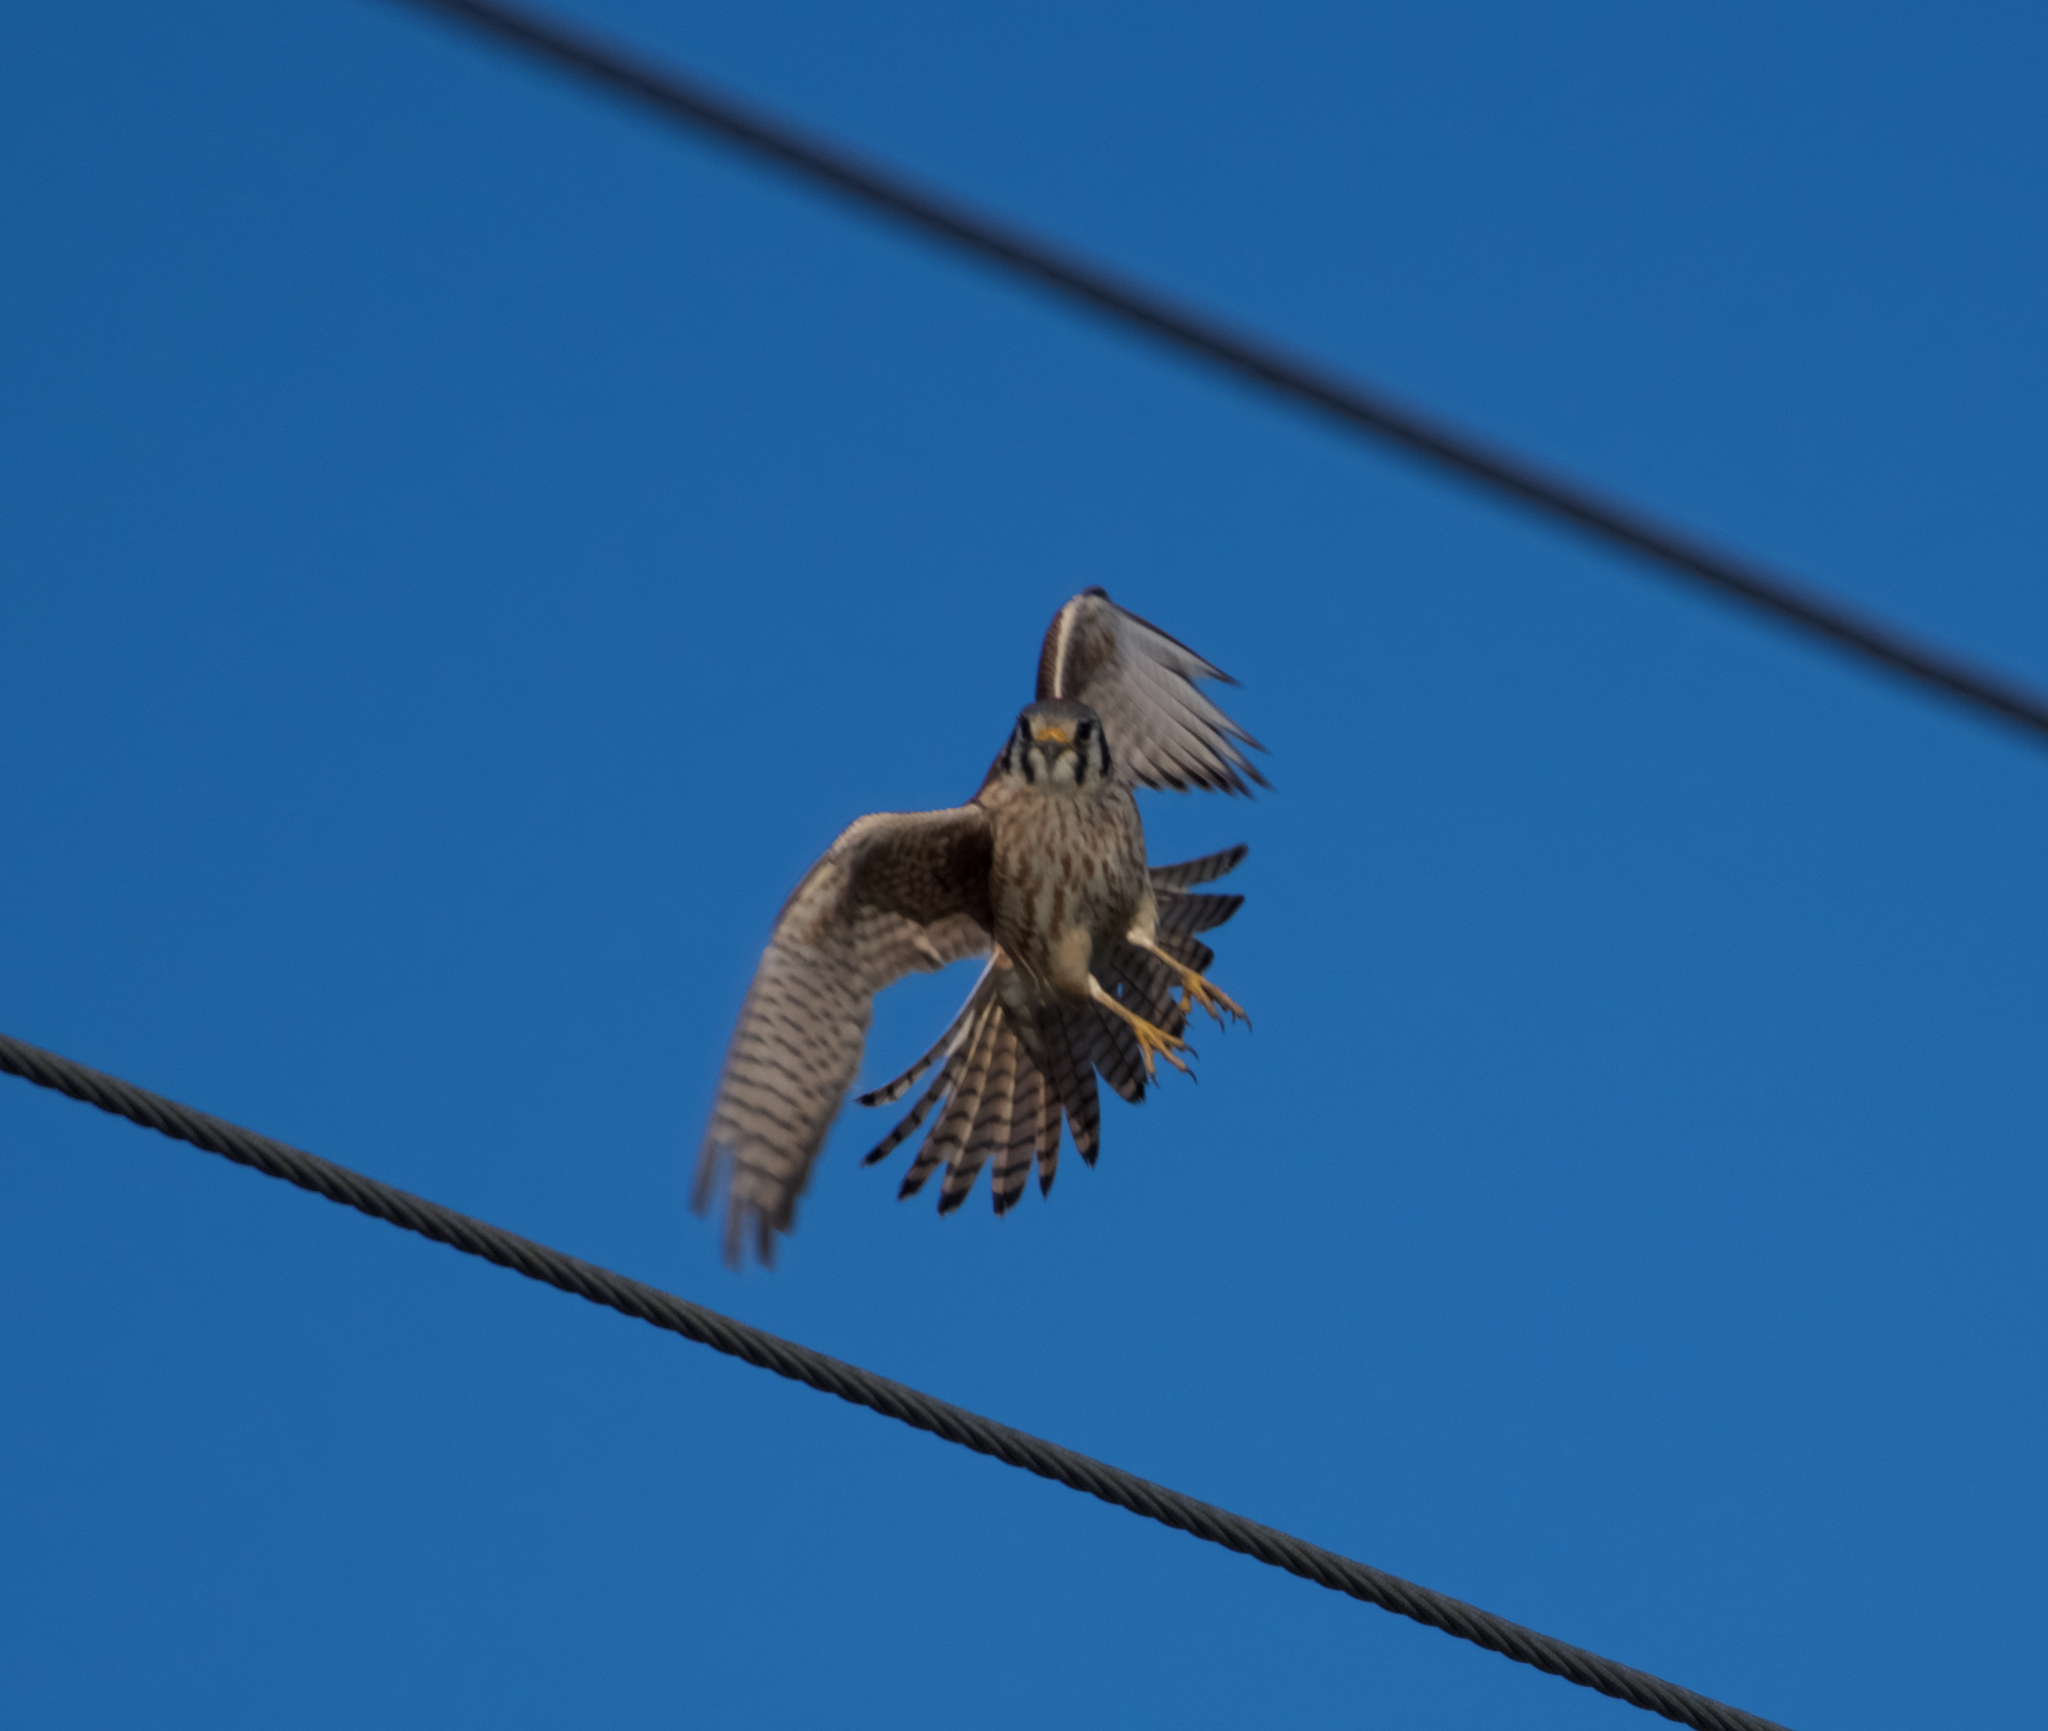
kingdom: Animalia
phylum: Chordata
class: Aves
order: Falconiformes
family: Falconidae
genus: Falco
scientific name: Falco sparverius
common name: American kestrel
